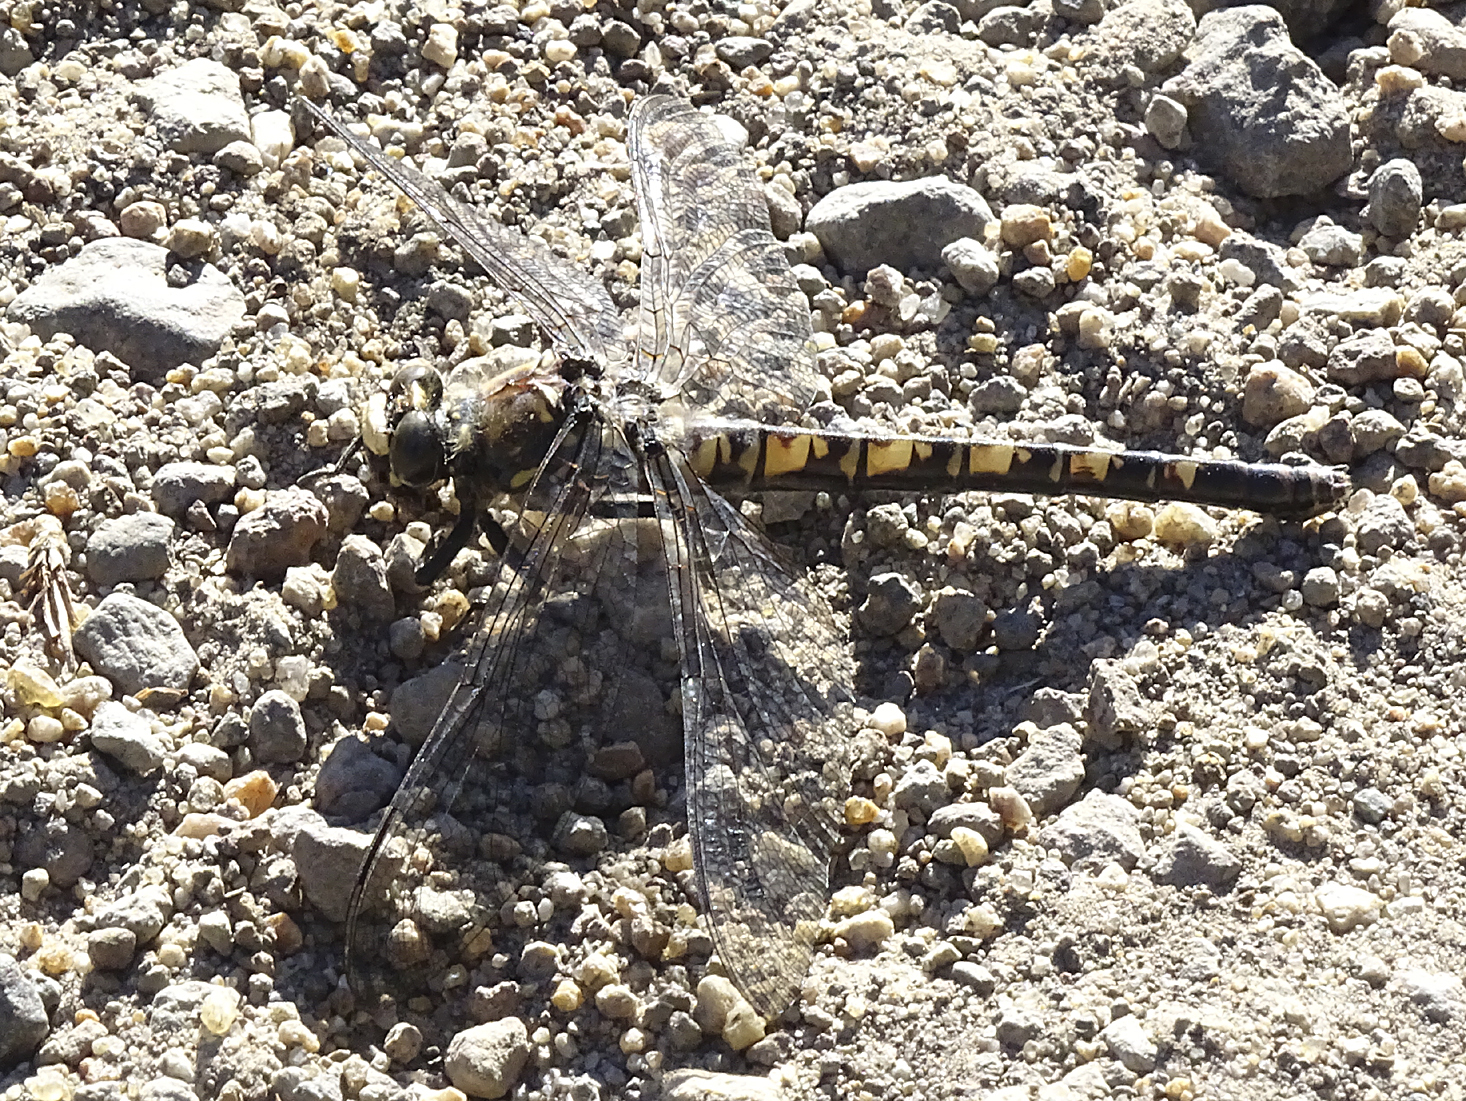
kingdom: Animalia
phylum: Arthropoda
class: Insecta
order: Odonata
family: Petaluridae
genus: Tanypteryx
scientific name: Tanypteryx hageni
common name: Black petaltail
